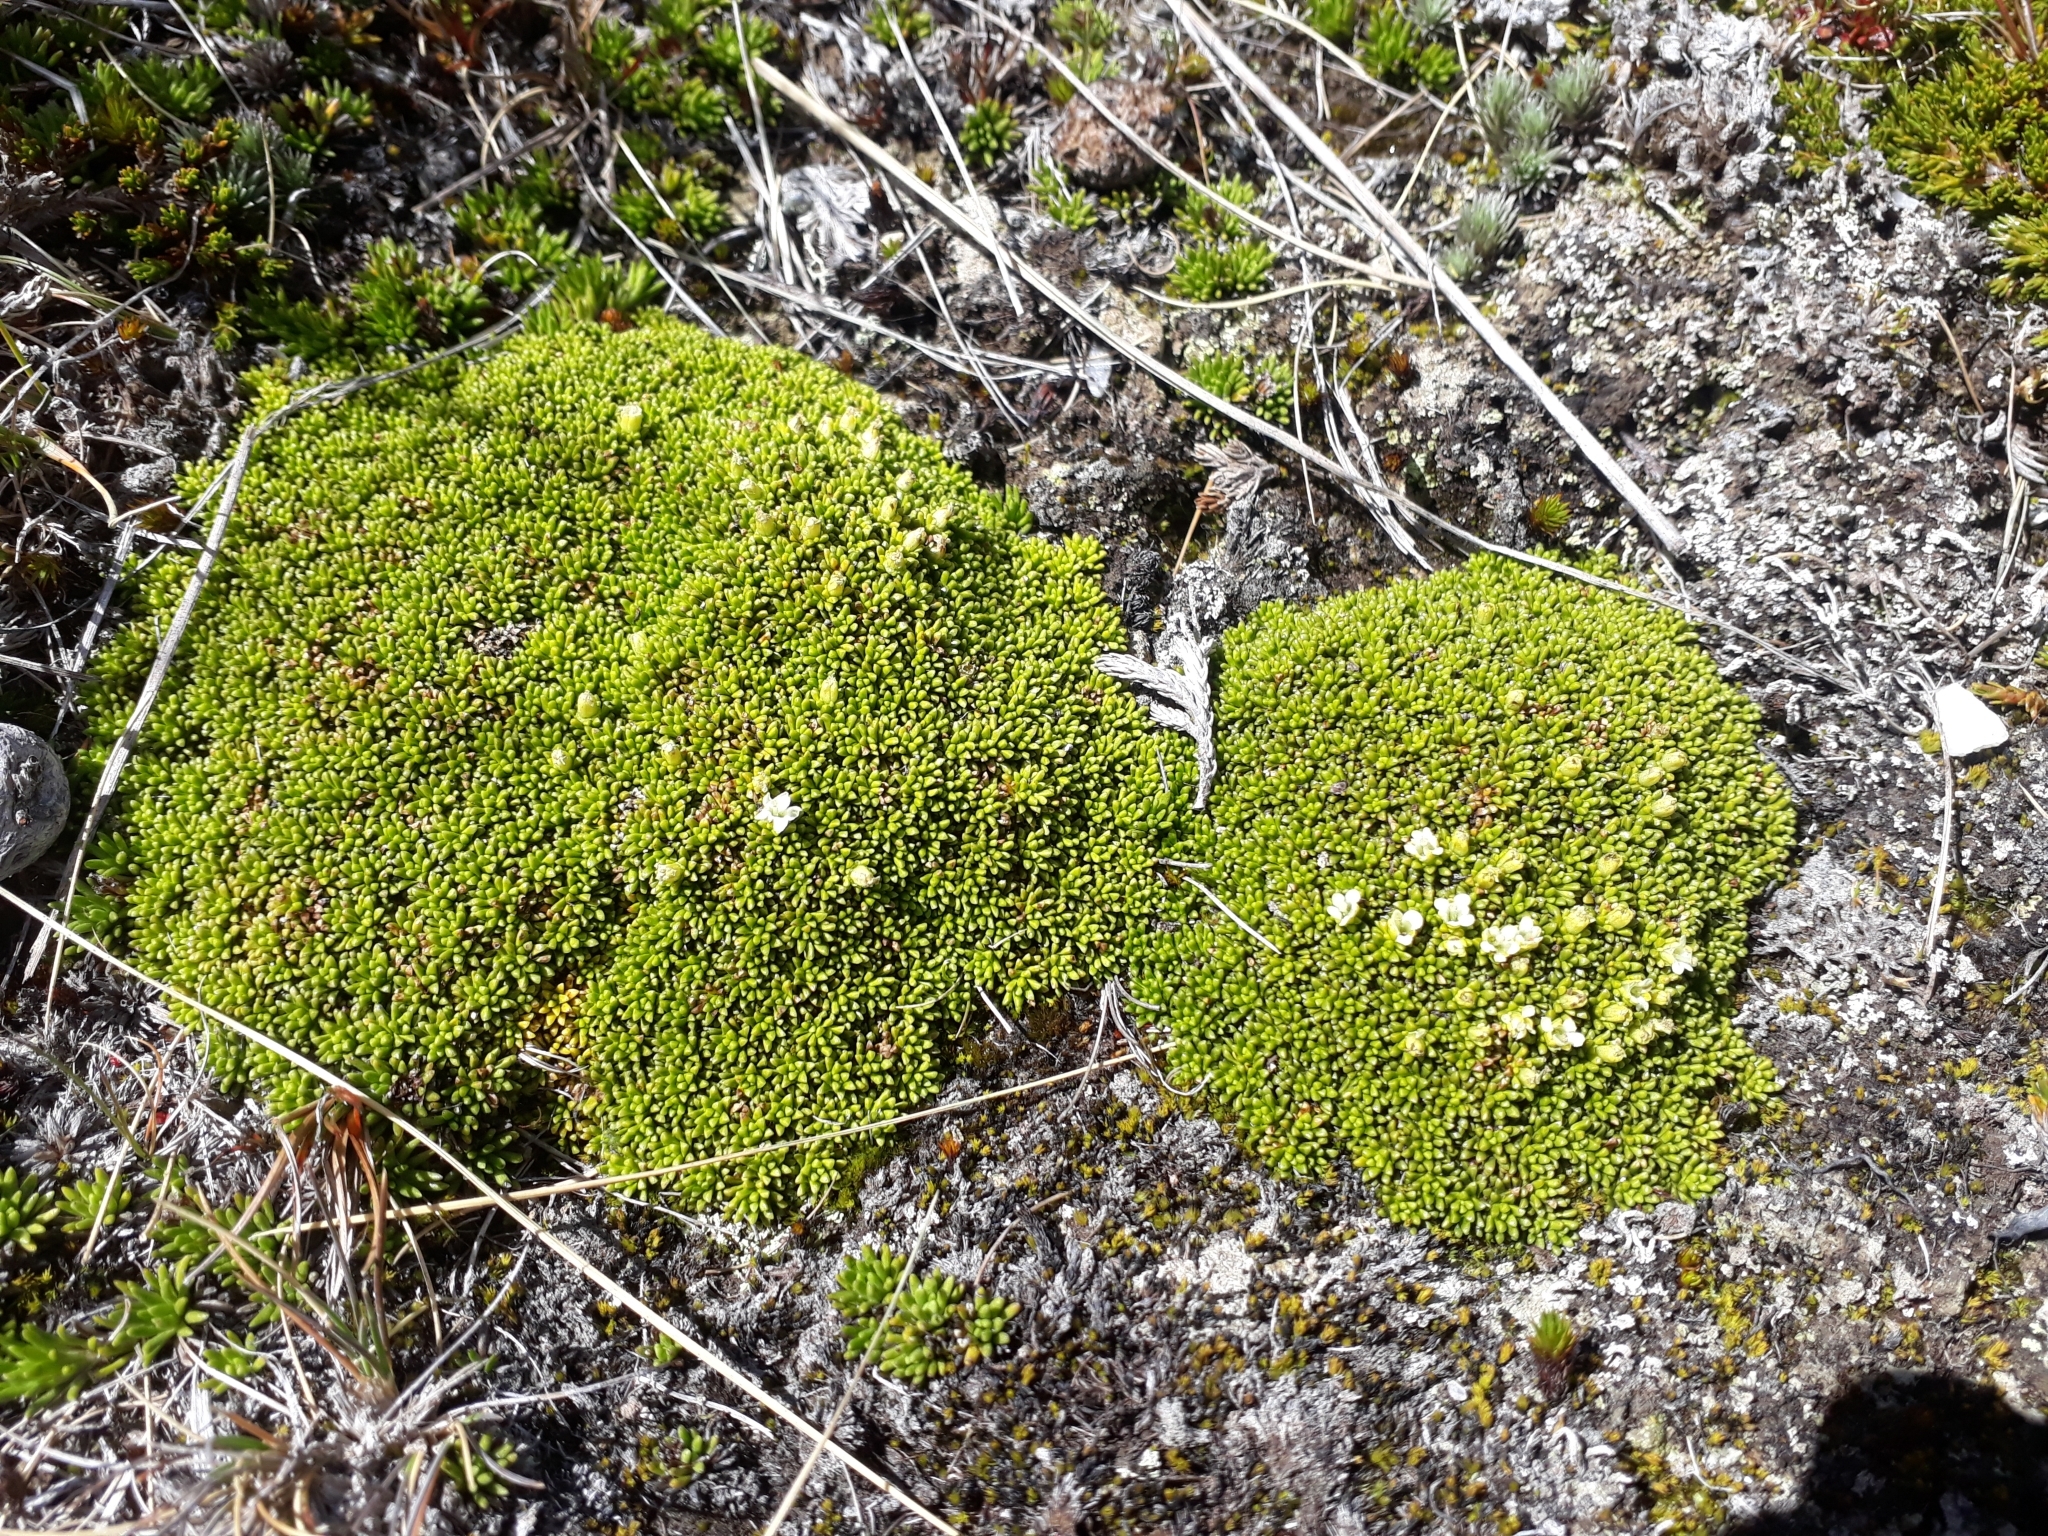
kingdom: Plantae
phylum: Tracheophyta
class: Magnoliopsida
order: Asterales
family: Stylidiaceae
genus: Phyllachne
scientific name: Phyllachne colensoi
